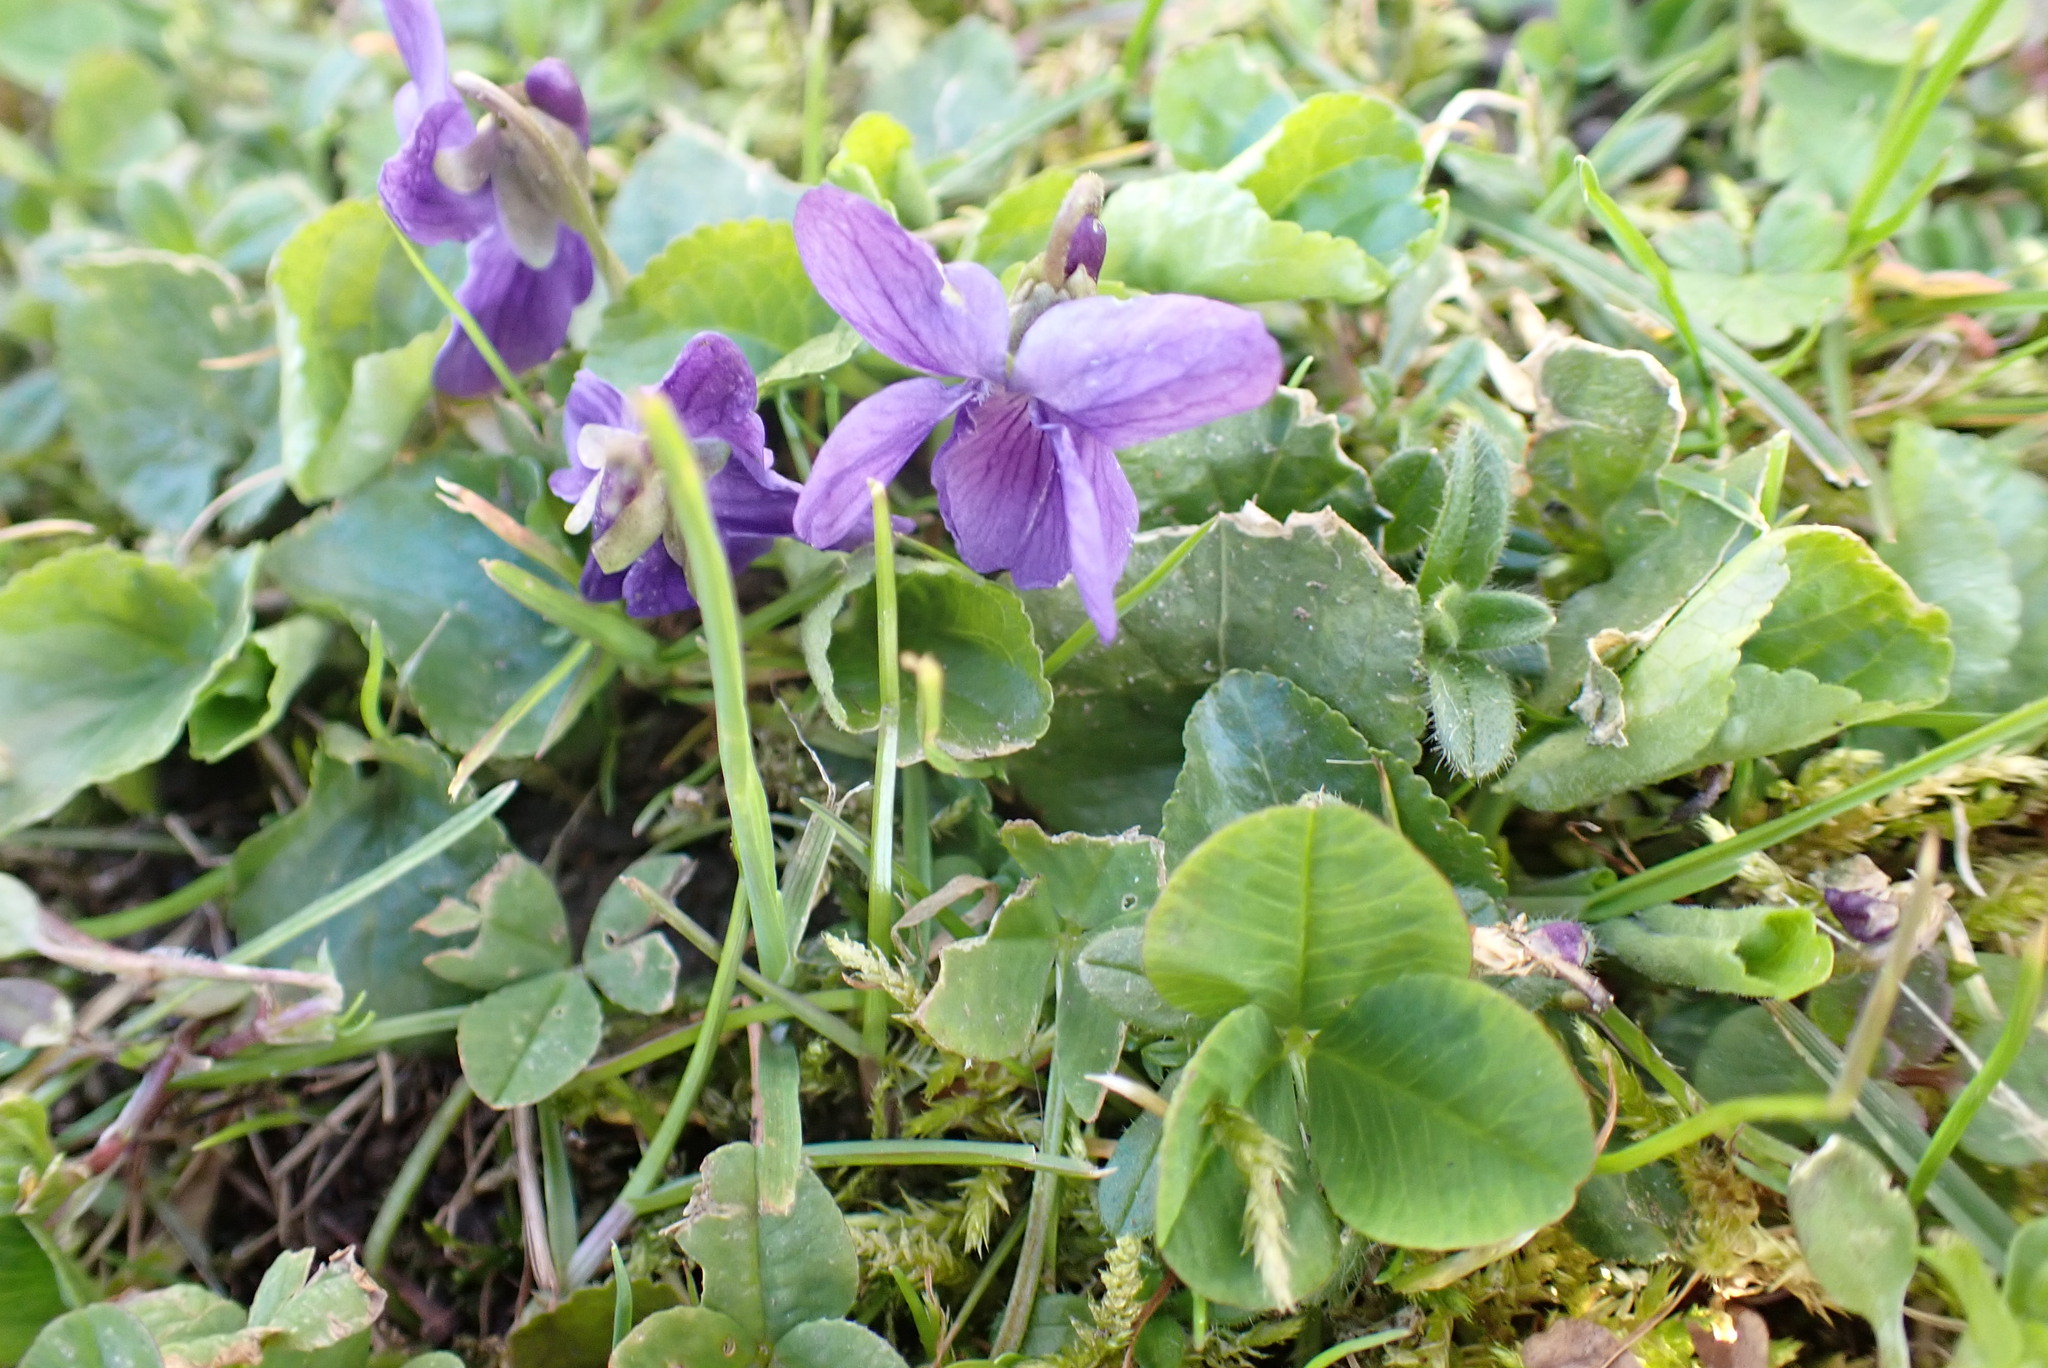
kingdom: Plantae
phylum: Tracheophyta
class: Magnoliopsida
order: Malpighiales
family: Violaceae
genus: Viola
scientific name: Viola odorata
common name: Sweet violet
